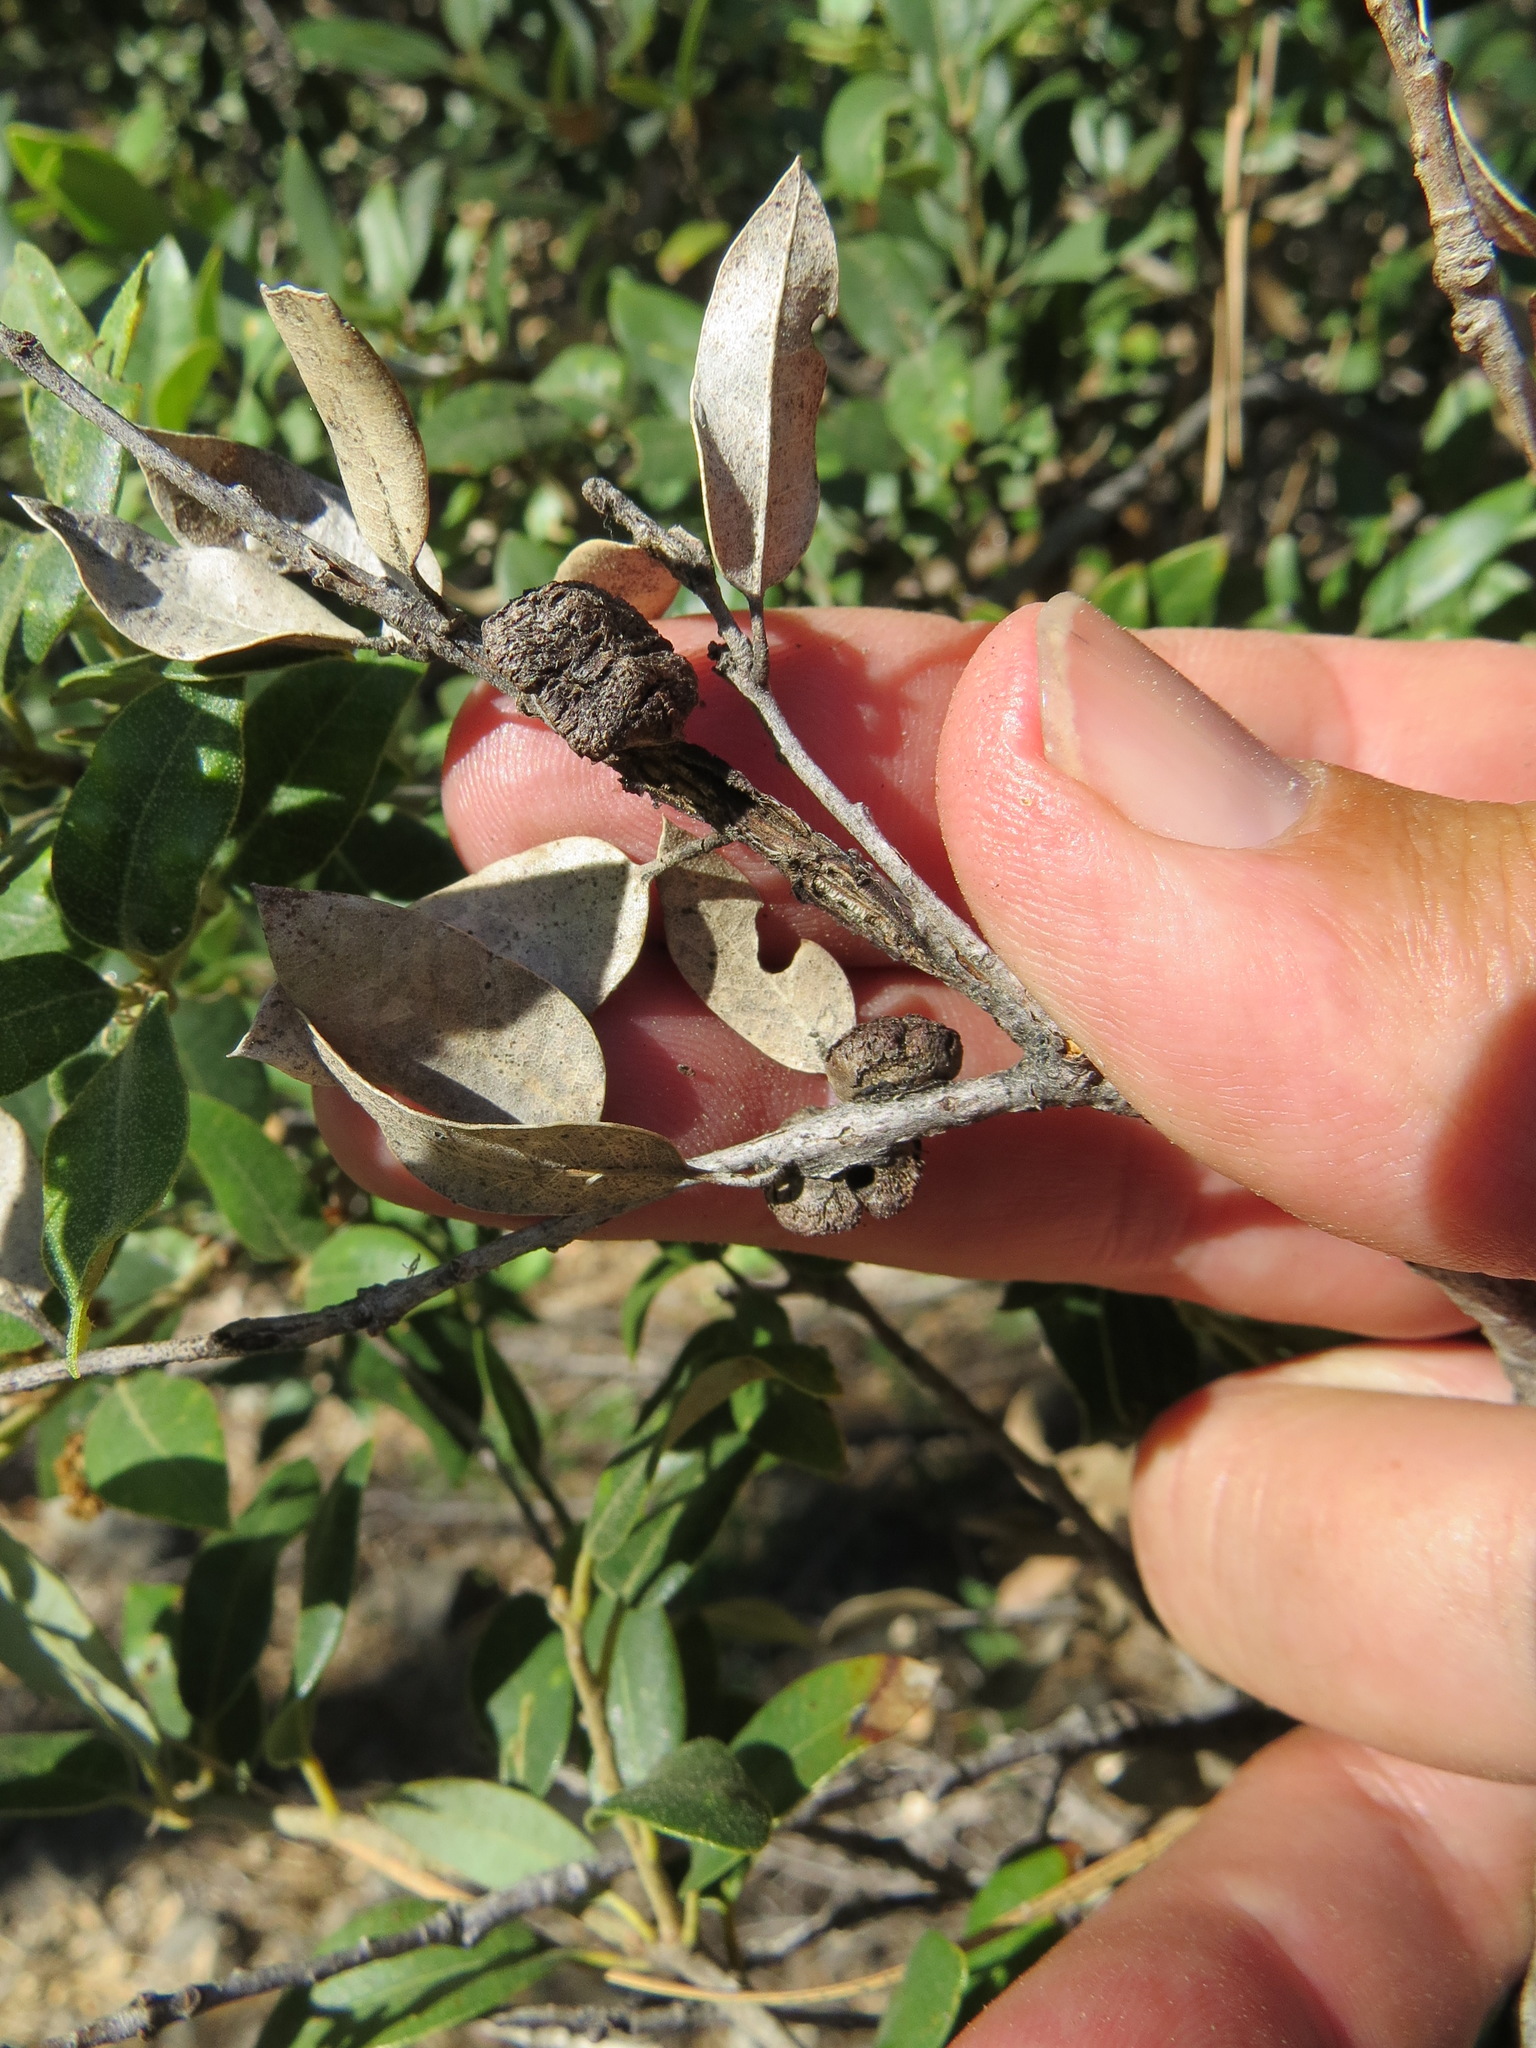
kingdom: Animalia
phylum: Arthropoda
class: Insecta
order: Hymenoptera
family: Cynipidae
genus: Disholandricus
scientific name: Disholandricus
